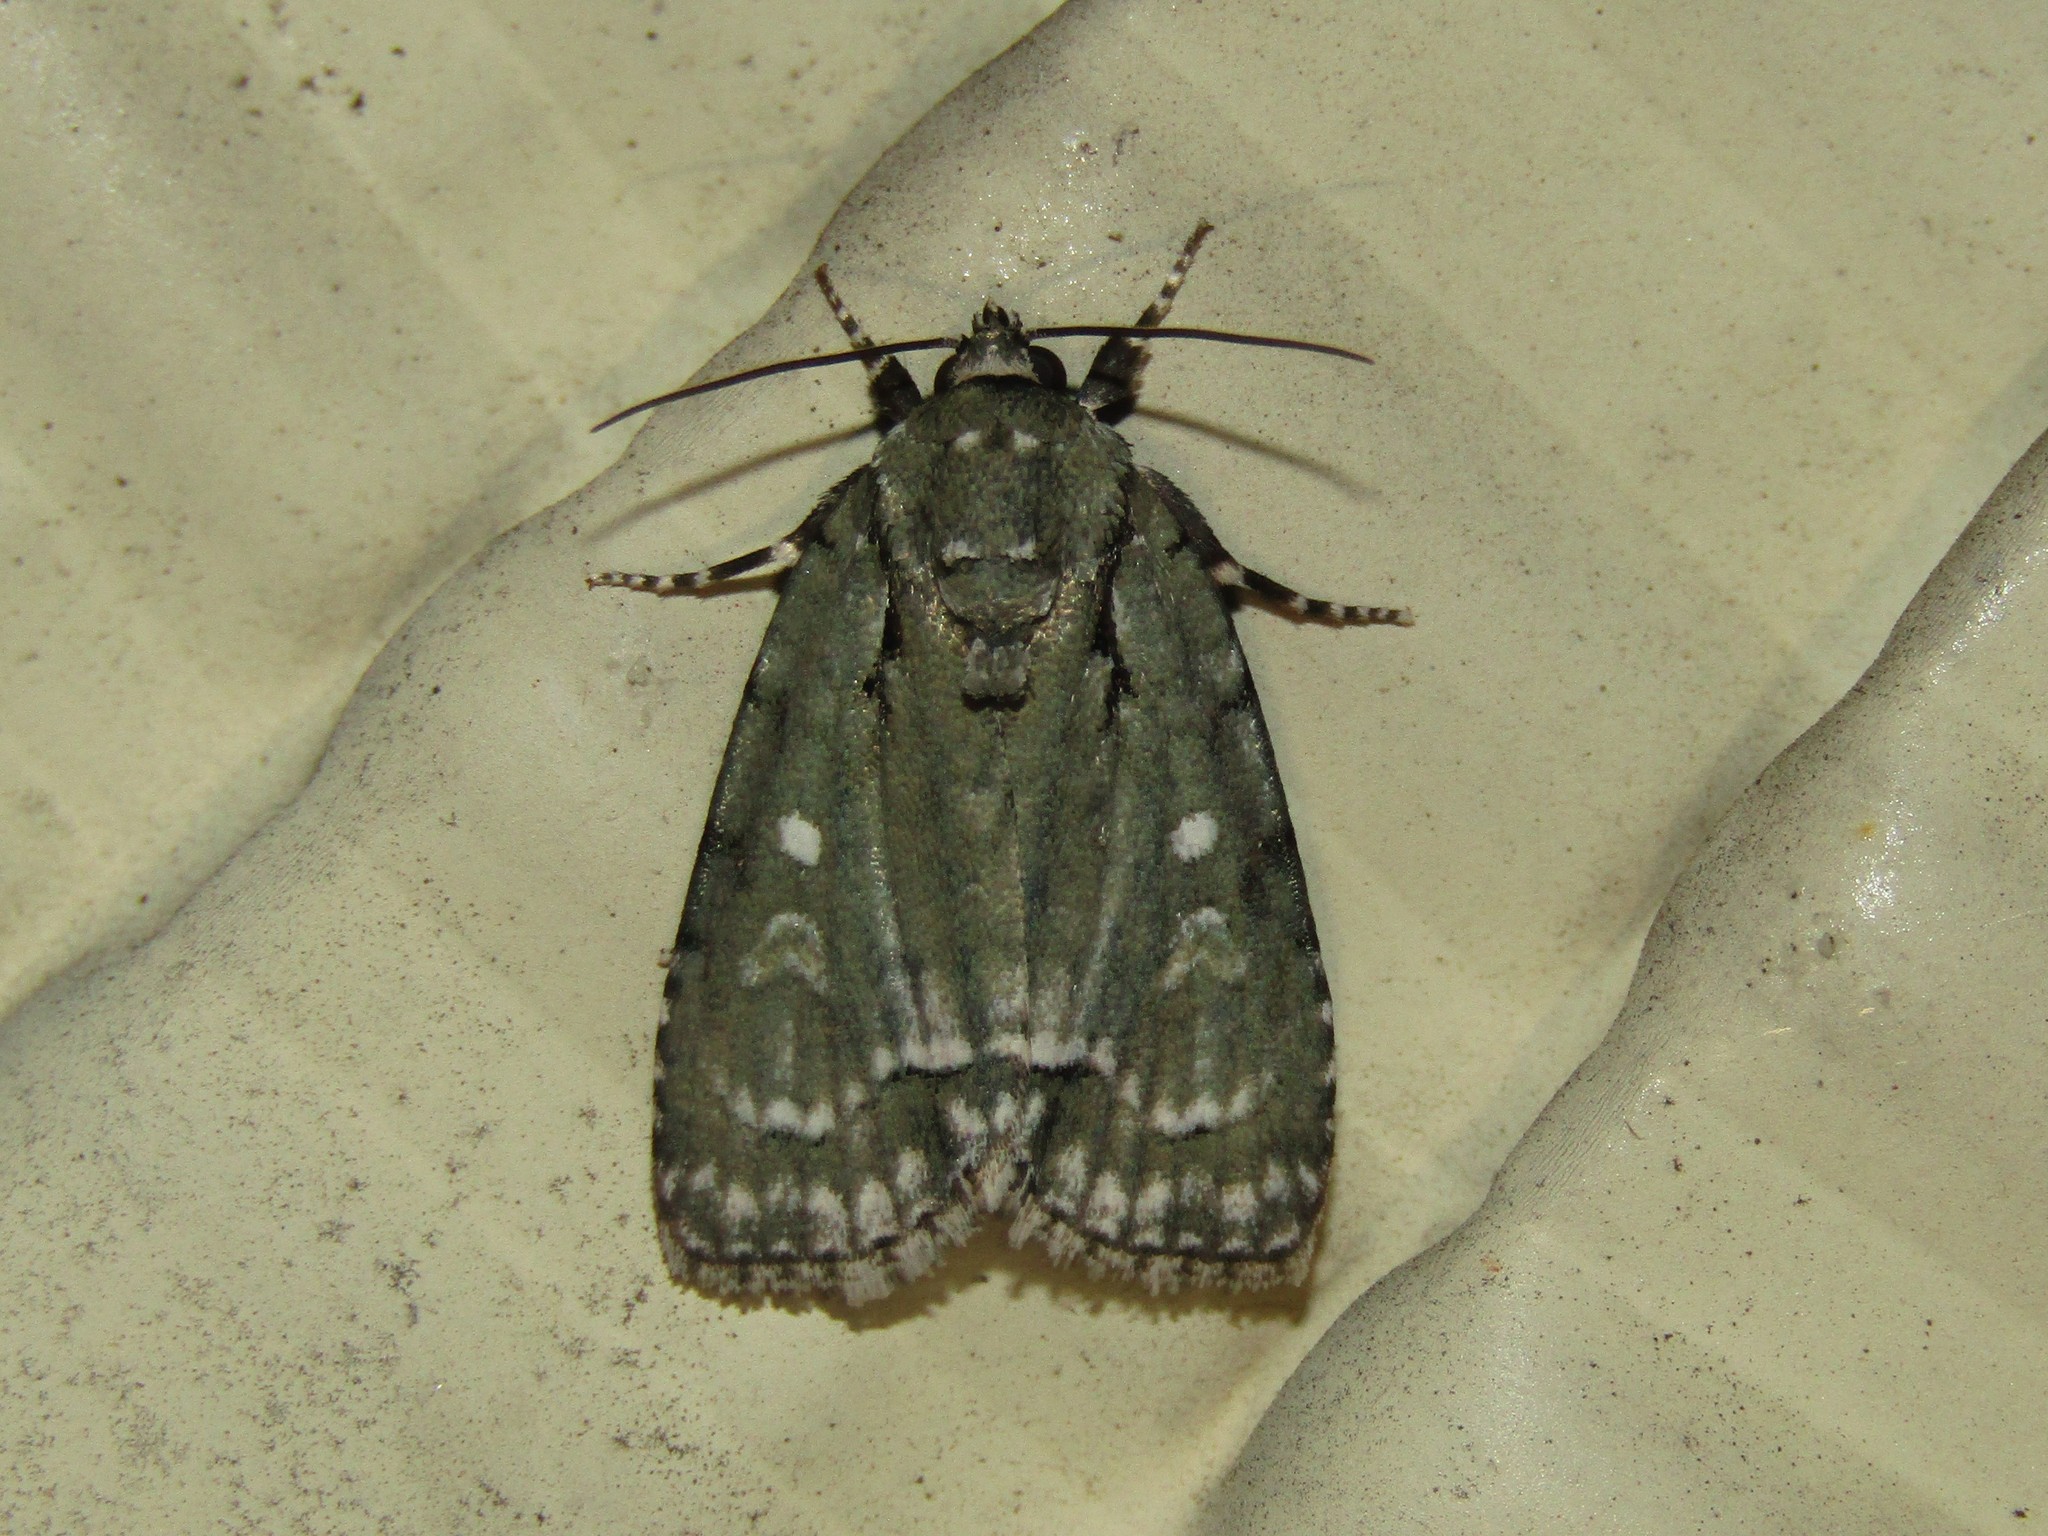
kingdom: Animalia
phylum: Arthropoda
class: Insecta
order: Lepidoptera
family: Noctuidae
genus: Acronicta
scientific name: Acronicta vinnula
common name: Delightful dagger
